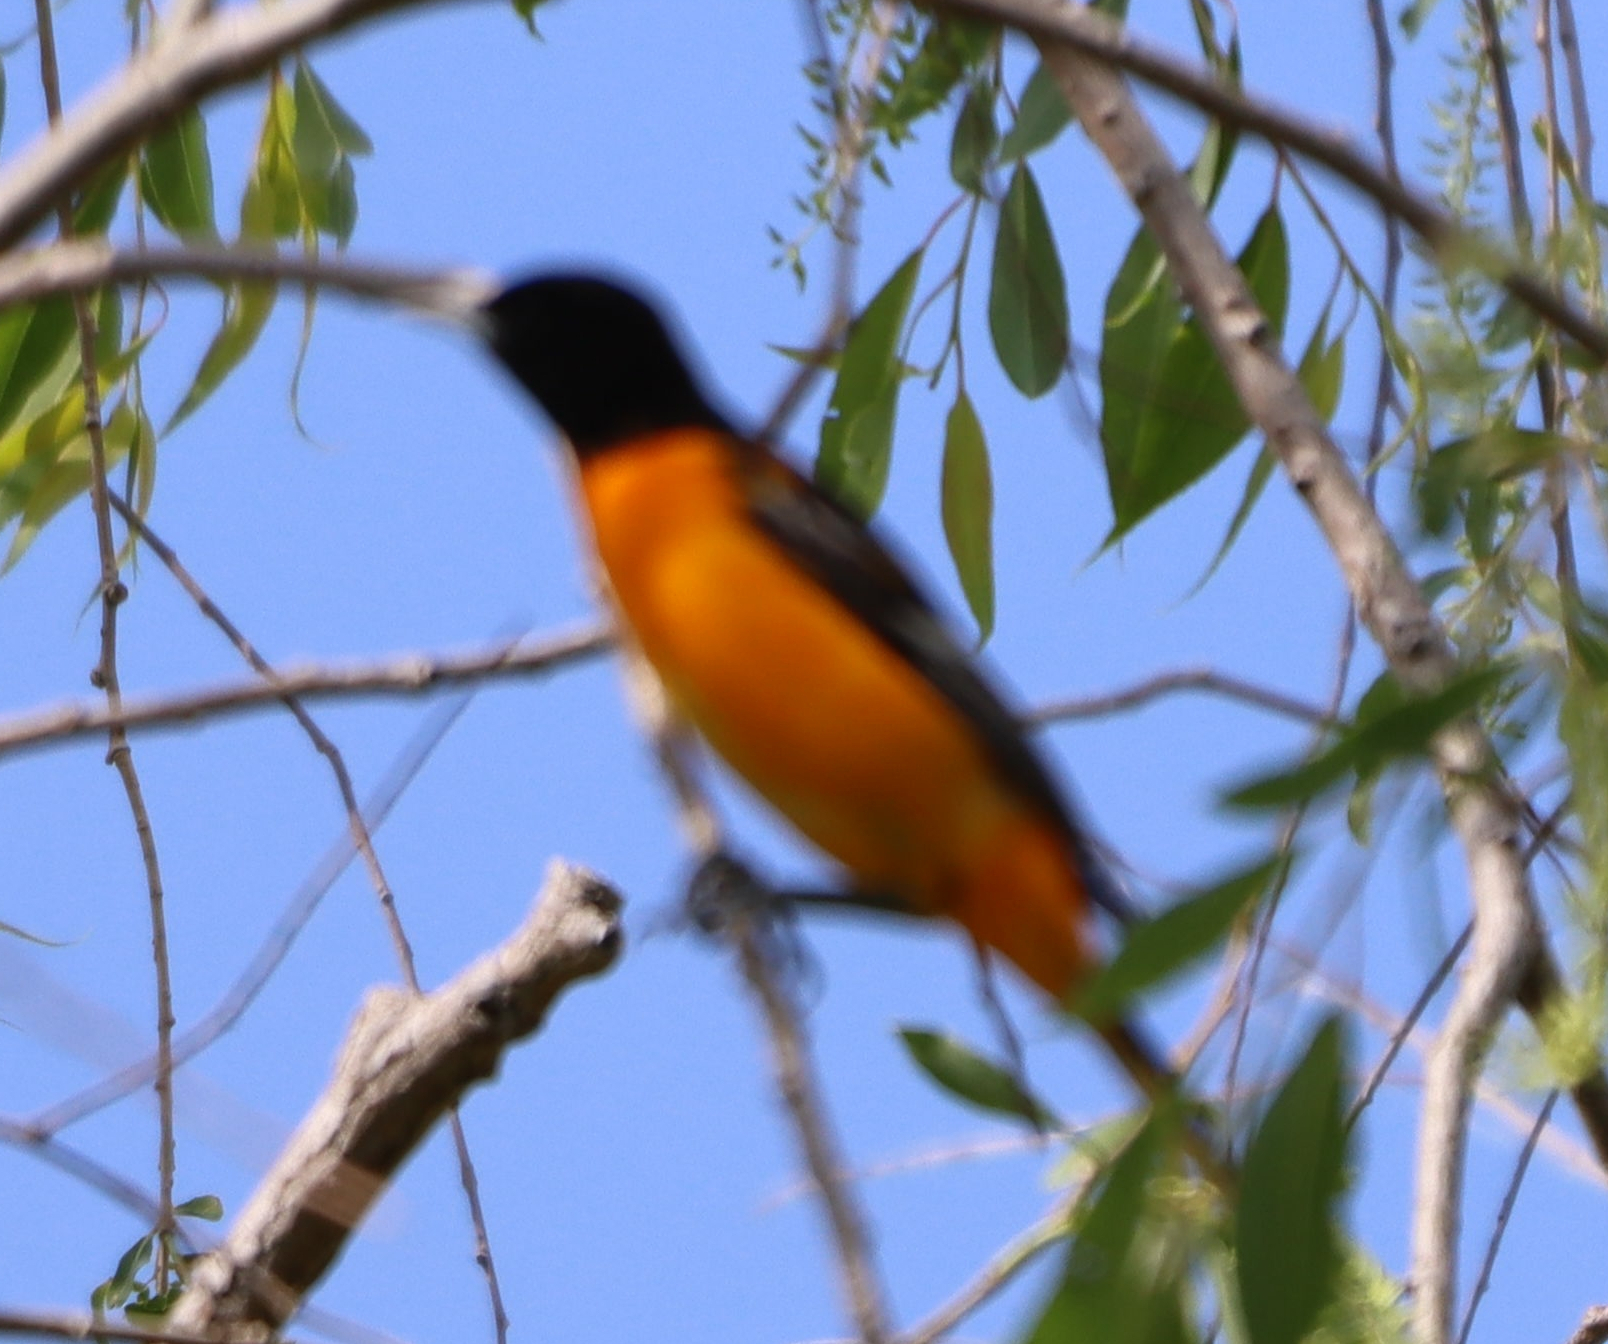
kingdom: Animalia
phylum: Chordata
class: Aves
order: Passeriformes
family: Icteridae
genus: Icterus
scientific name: Icterus galbula
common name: Baltimore oriole
